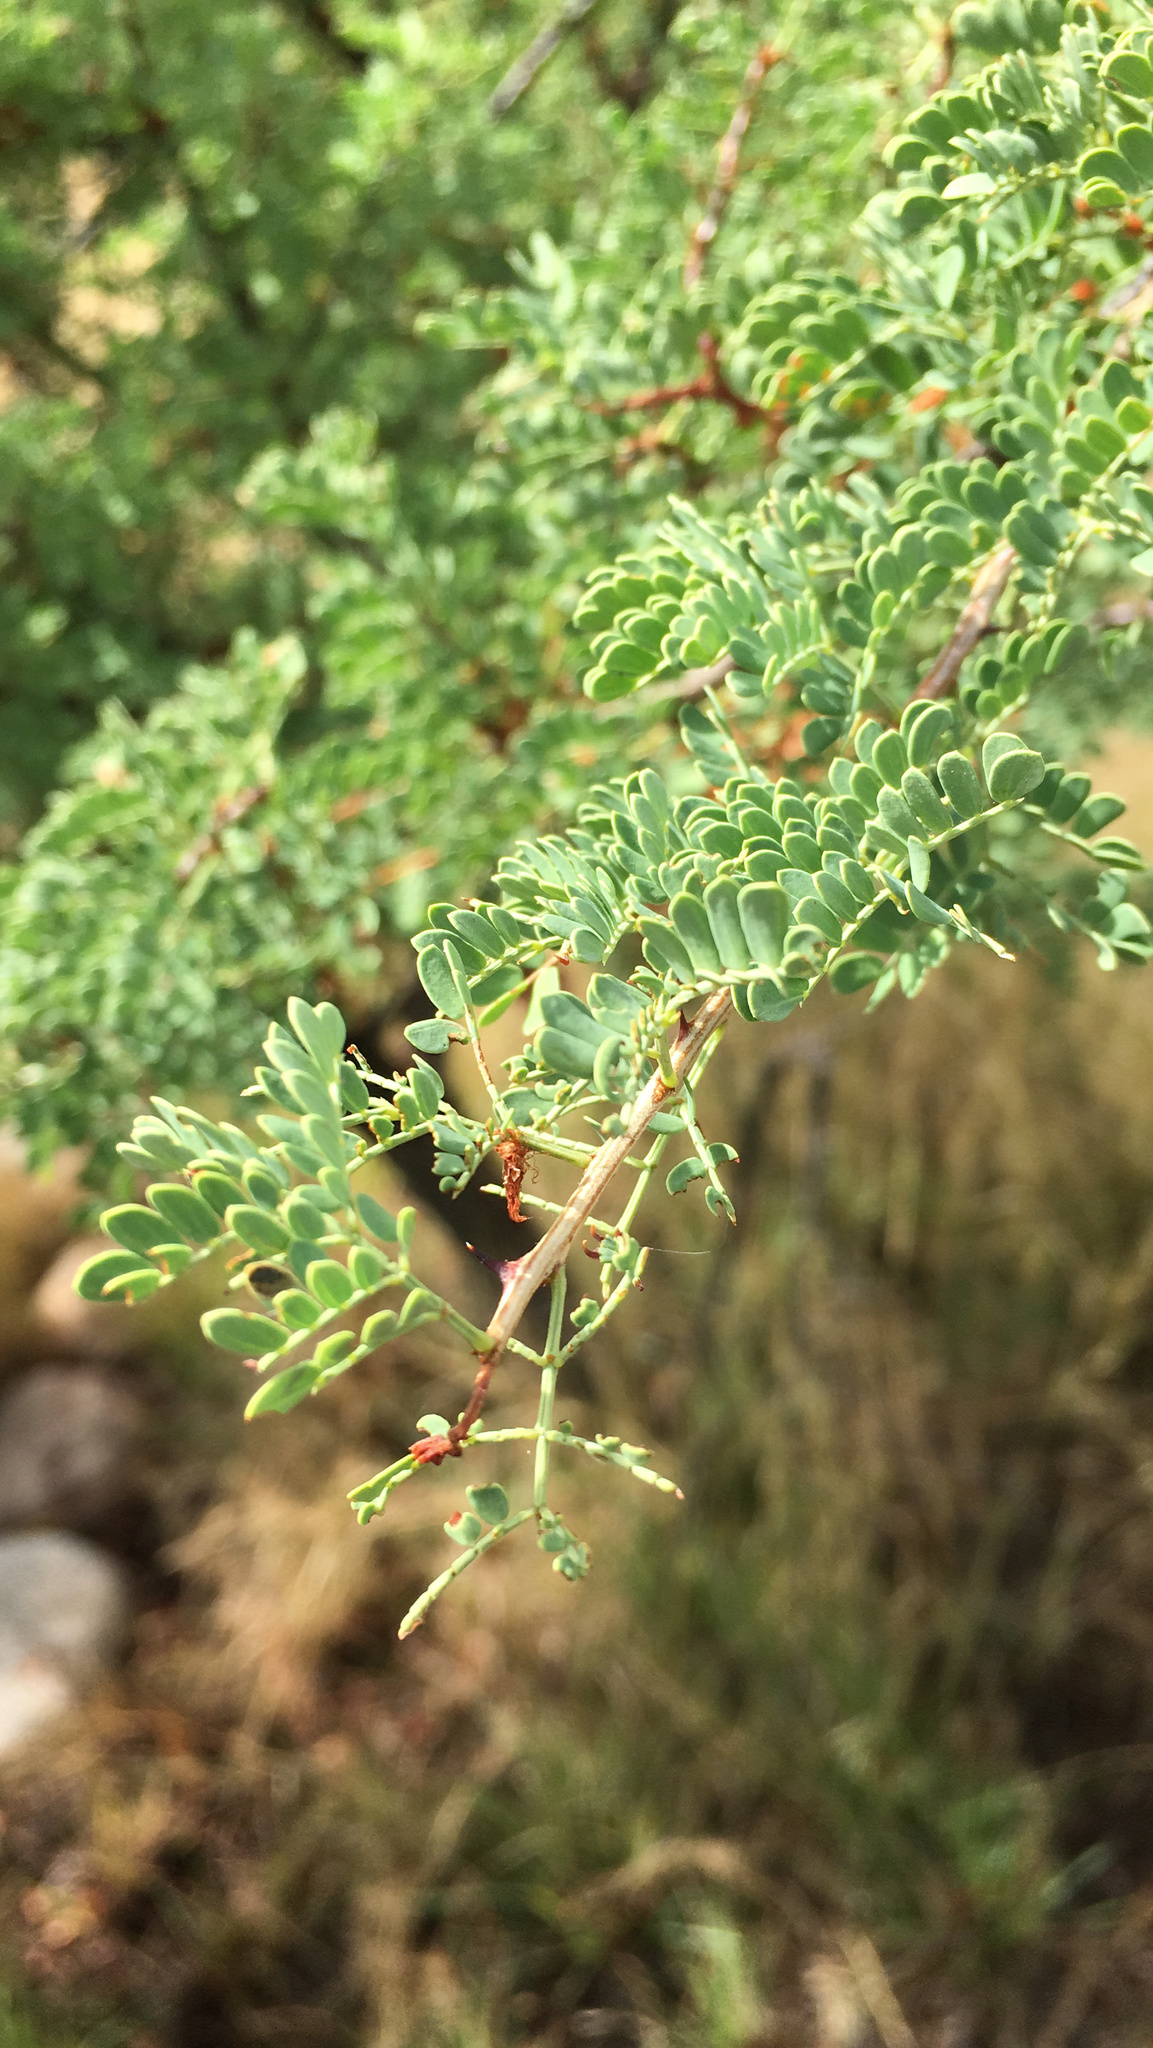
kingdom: Plantae
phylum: Tracheophyta
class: Magnoliopsida
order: Fabales
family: Fabaceae
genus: Senegalia
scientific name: Senegalia greggii
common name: Texas-mimosa
